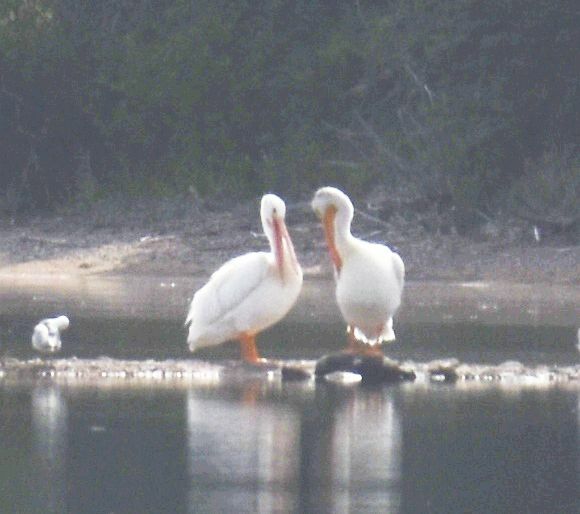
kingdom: Animalia
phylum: Chordata
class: Aves
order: Pelecaniformes
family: Pelecanidae
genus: Pelecanus
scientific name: Pelecanus erythrorhynchos
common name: American white pelican
